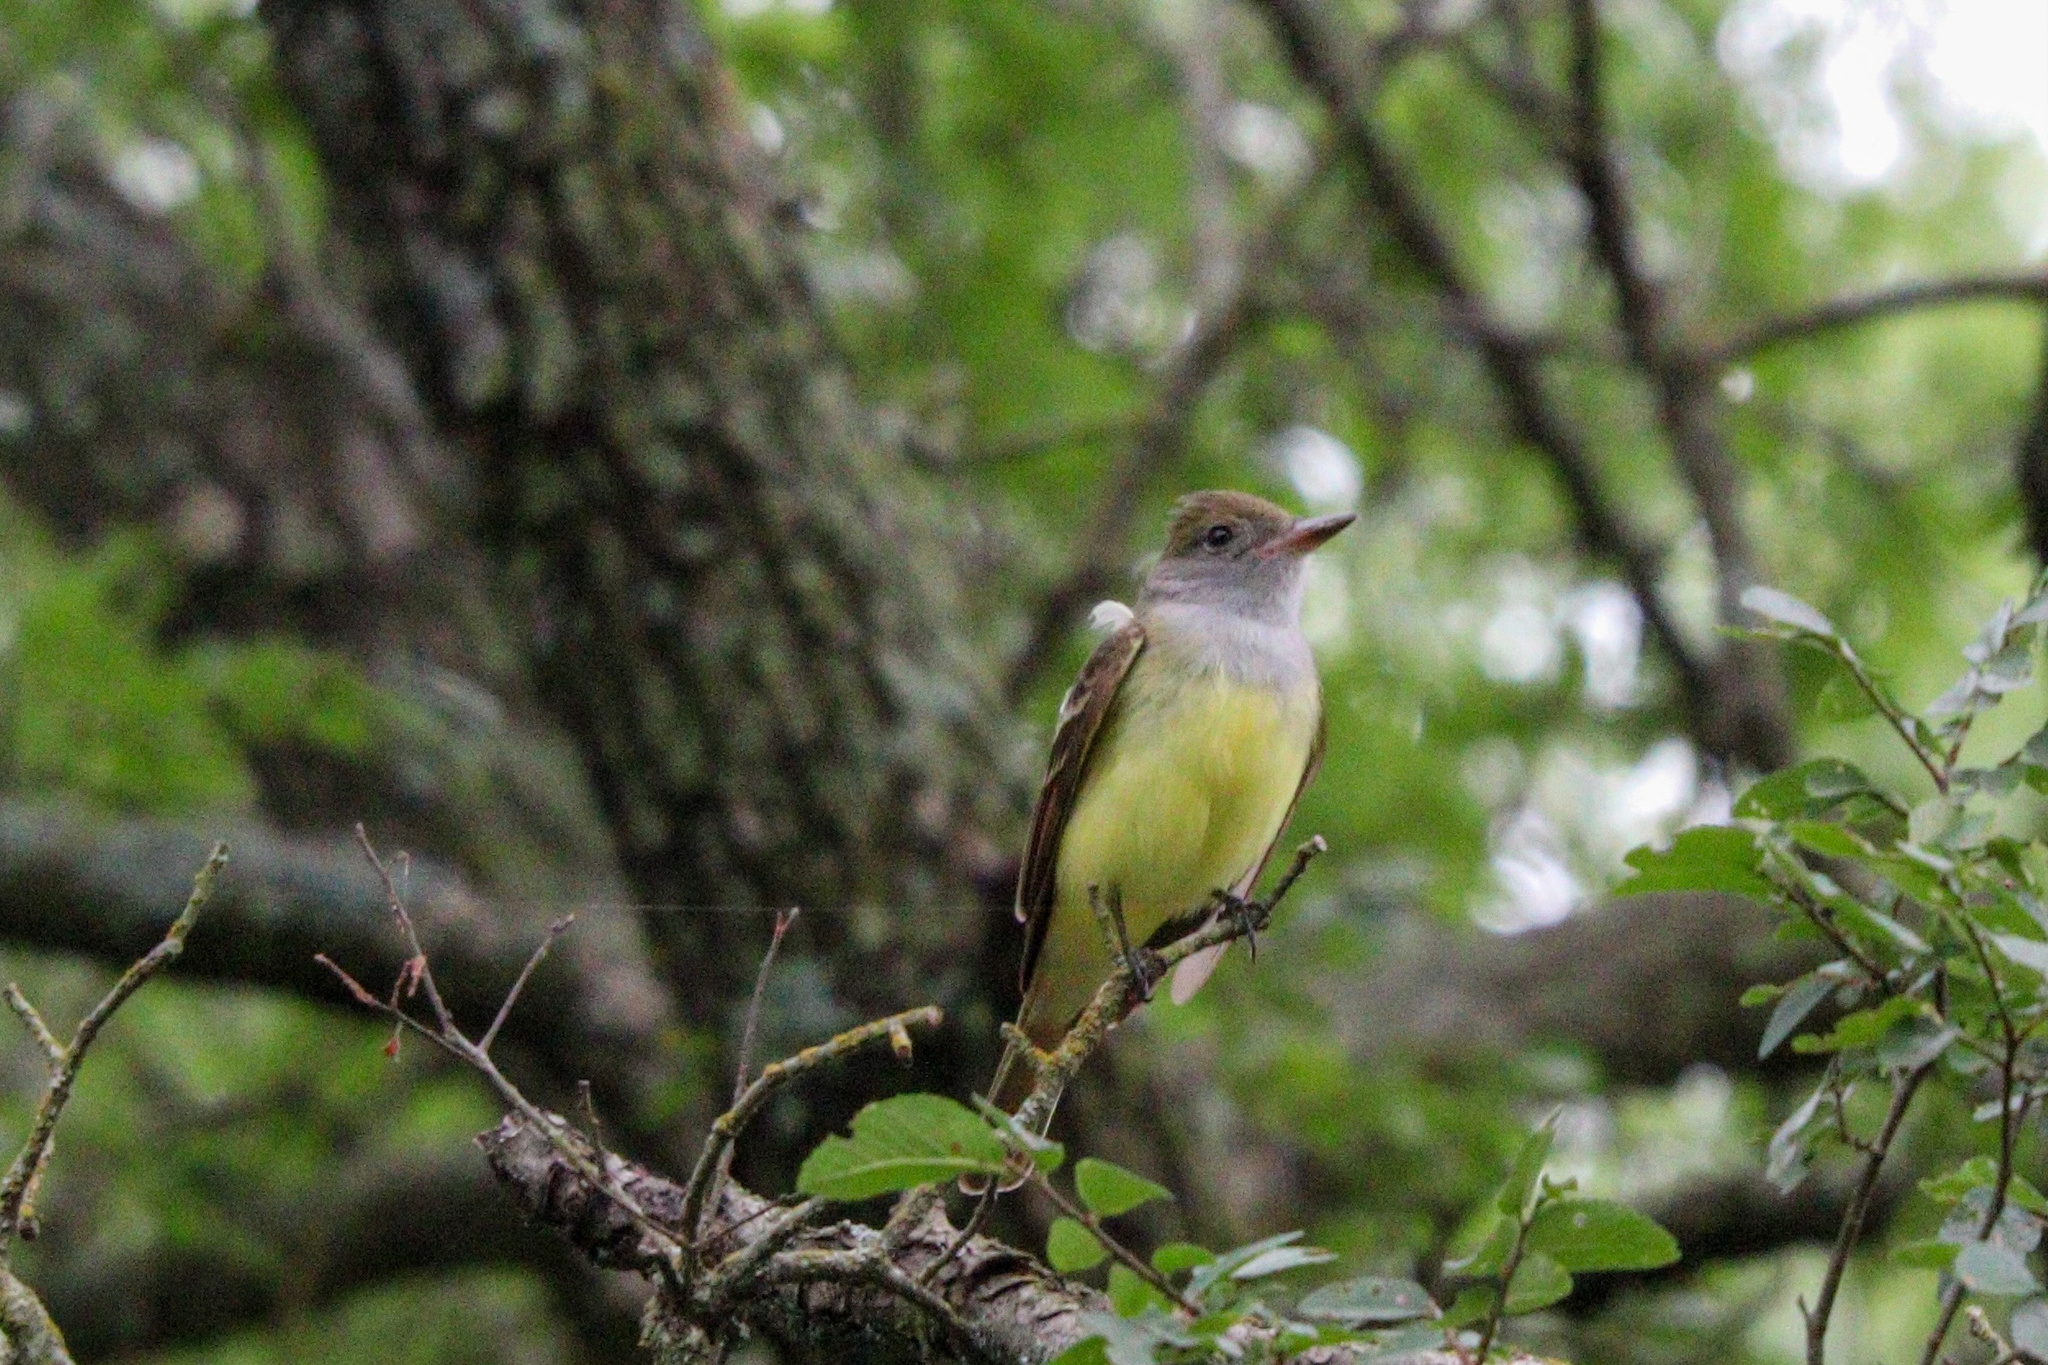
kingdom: Animalia
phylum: Chordata
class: Aves
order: Passeriformes
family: Tyrannidae
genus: Myiarchus
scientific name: Myiarchus crinitus
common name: Great crested flycatcher
